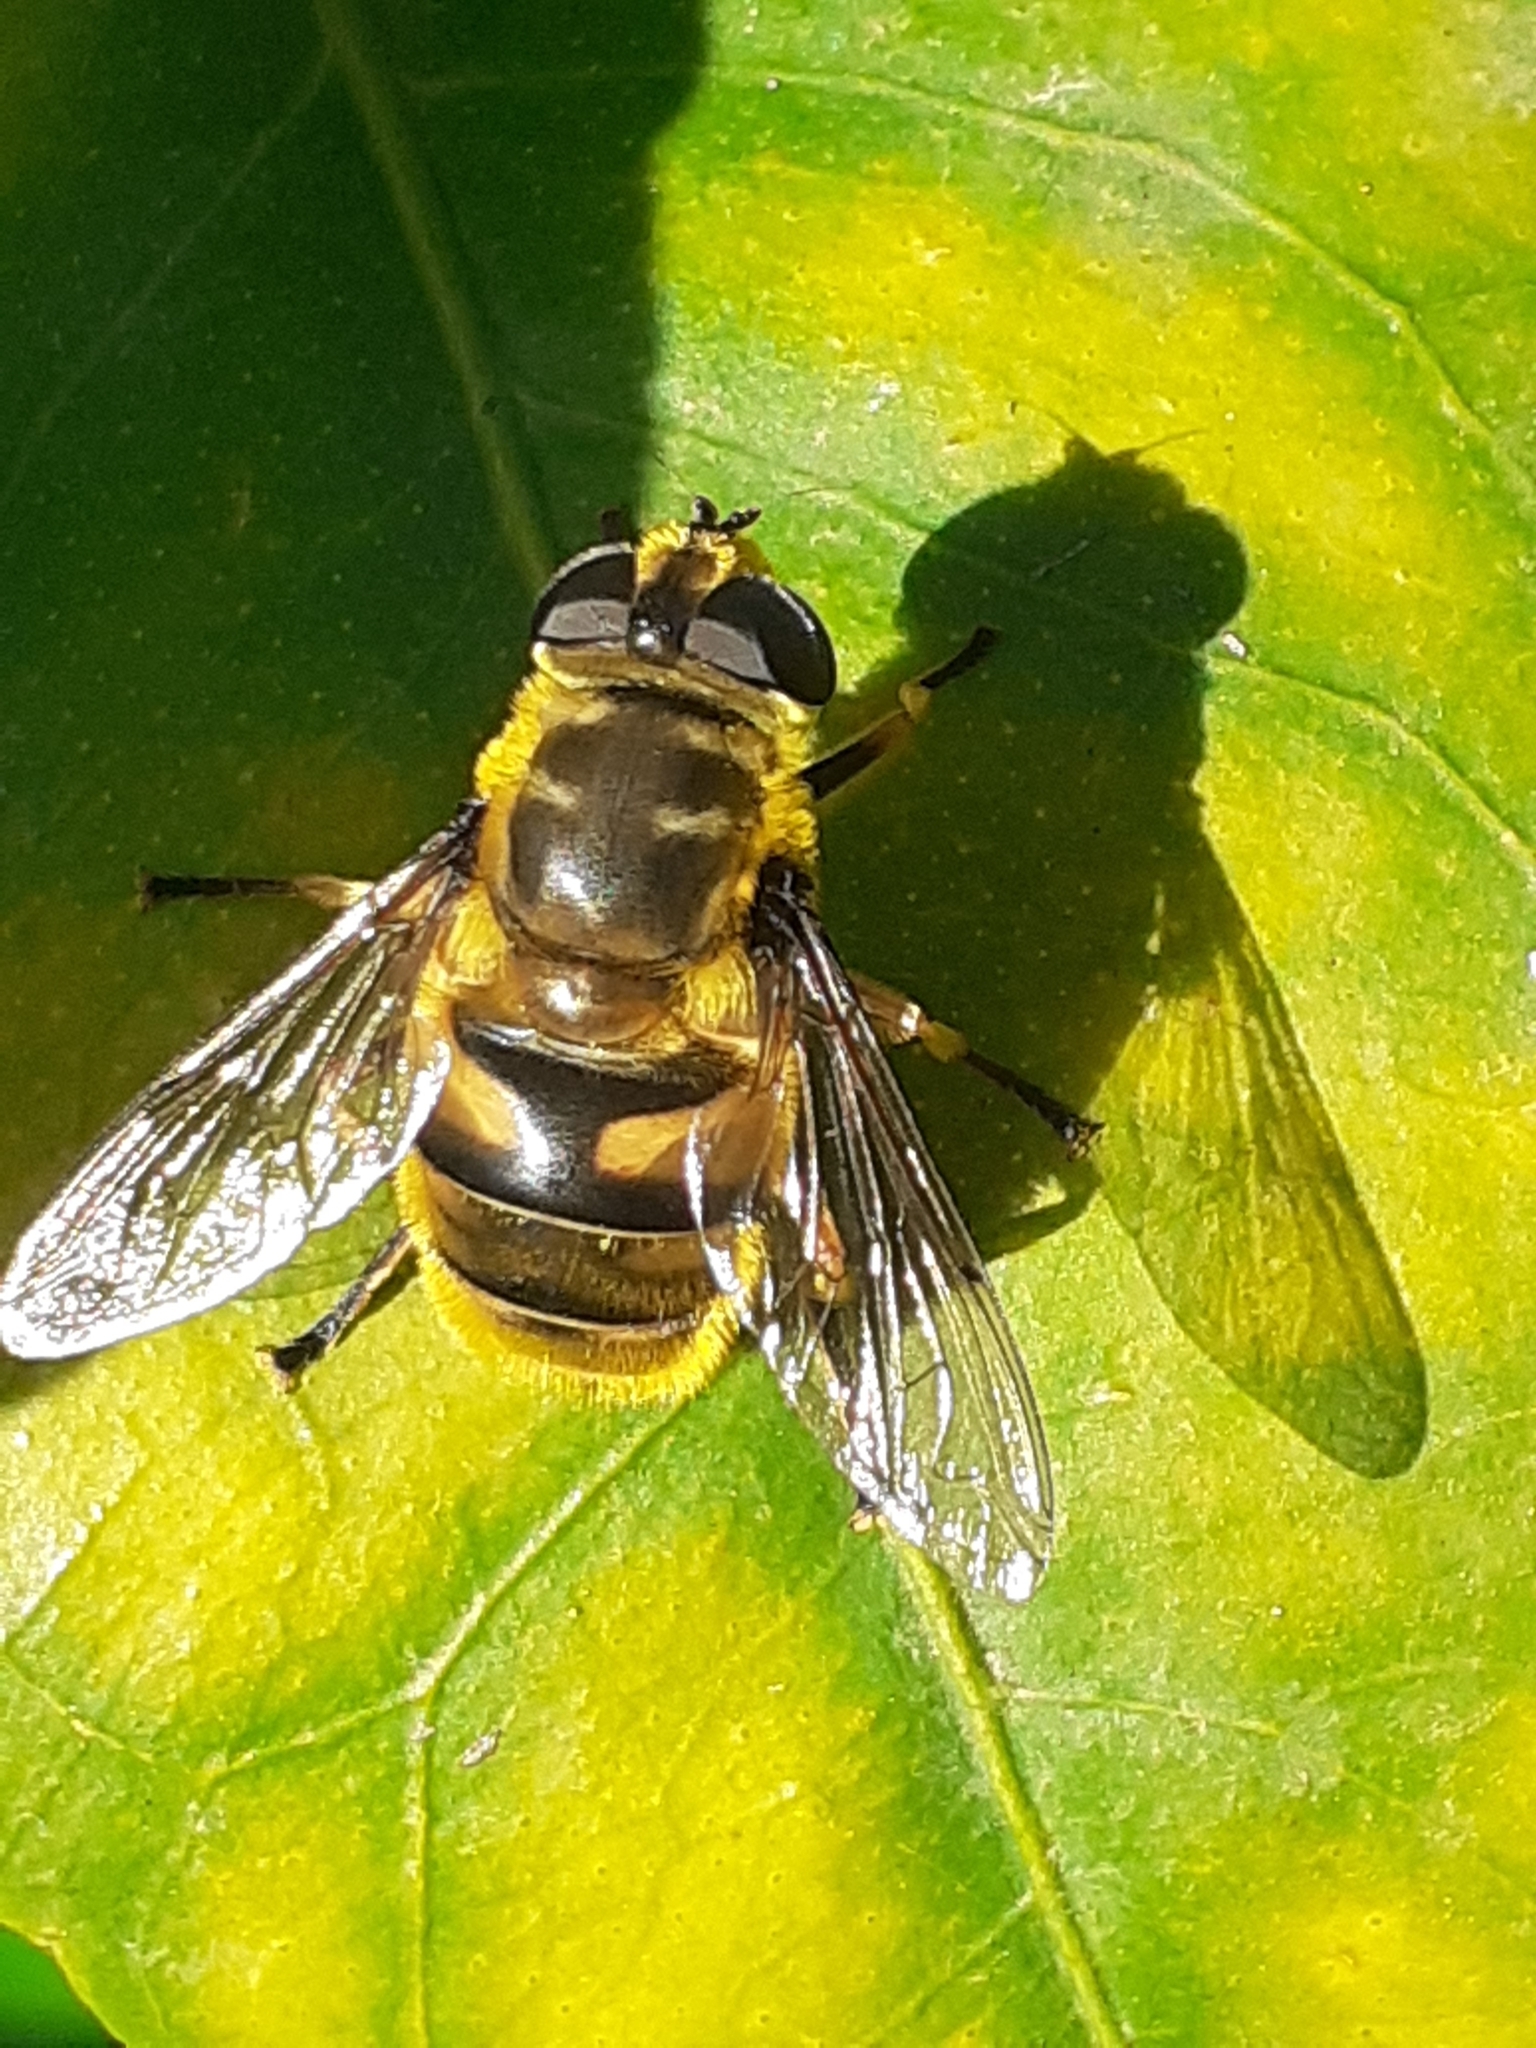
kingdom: Animalia
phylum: Arthropoda
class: Insecta
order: Diptera
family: Syrphidae
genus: Myathropa
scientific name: Myathropa florea
